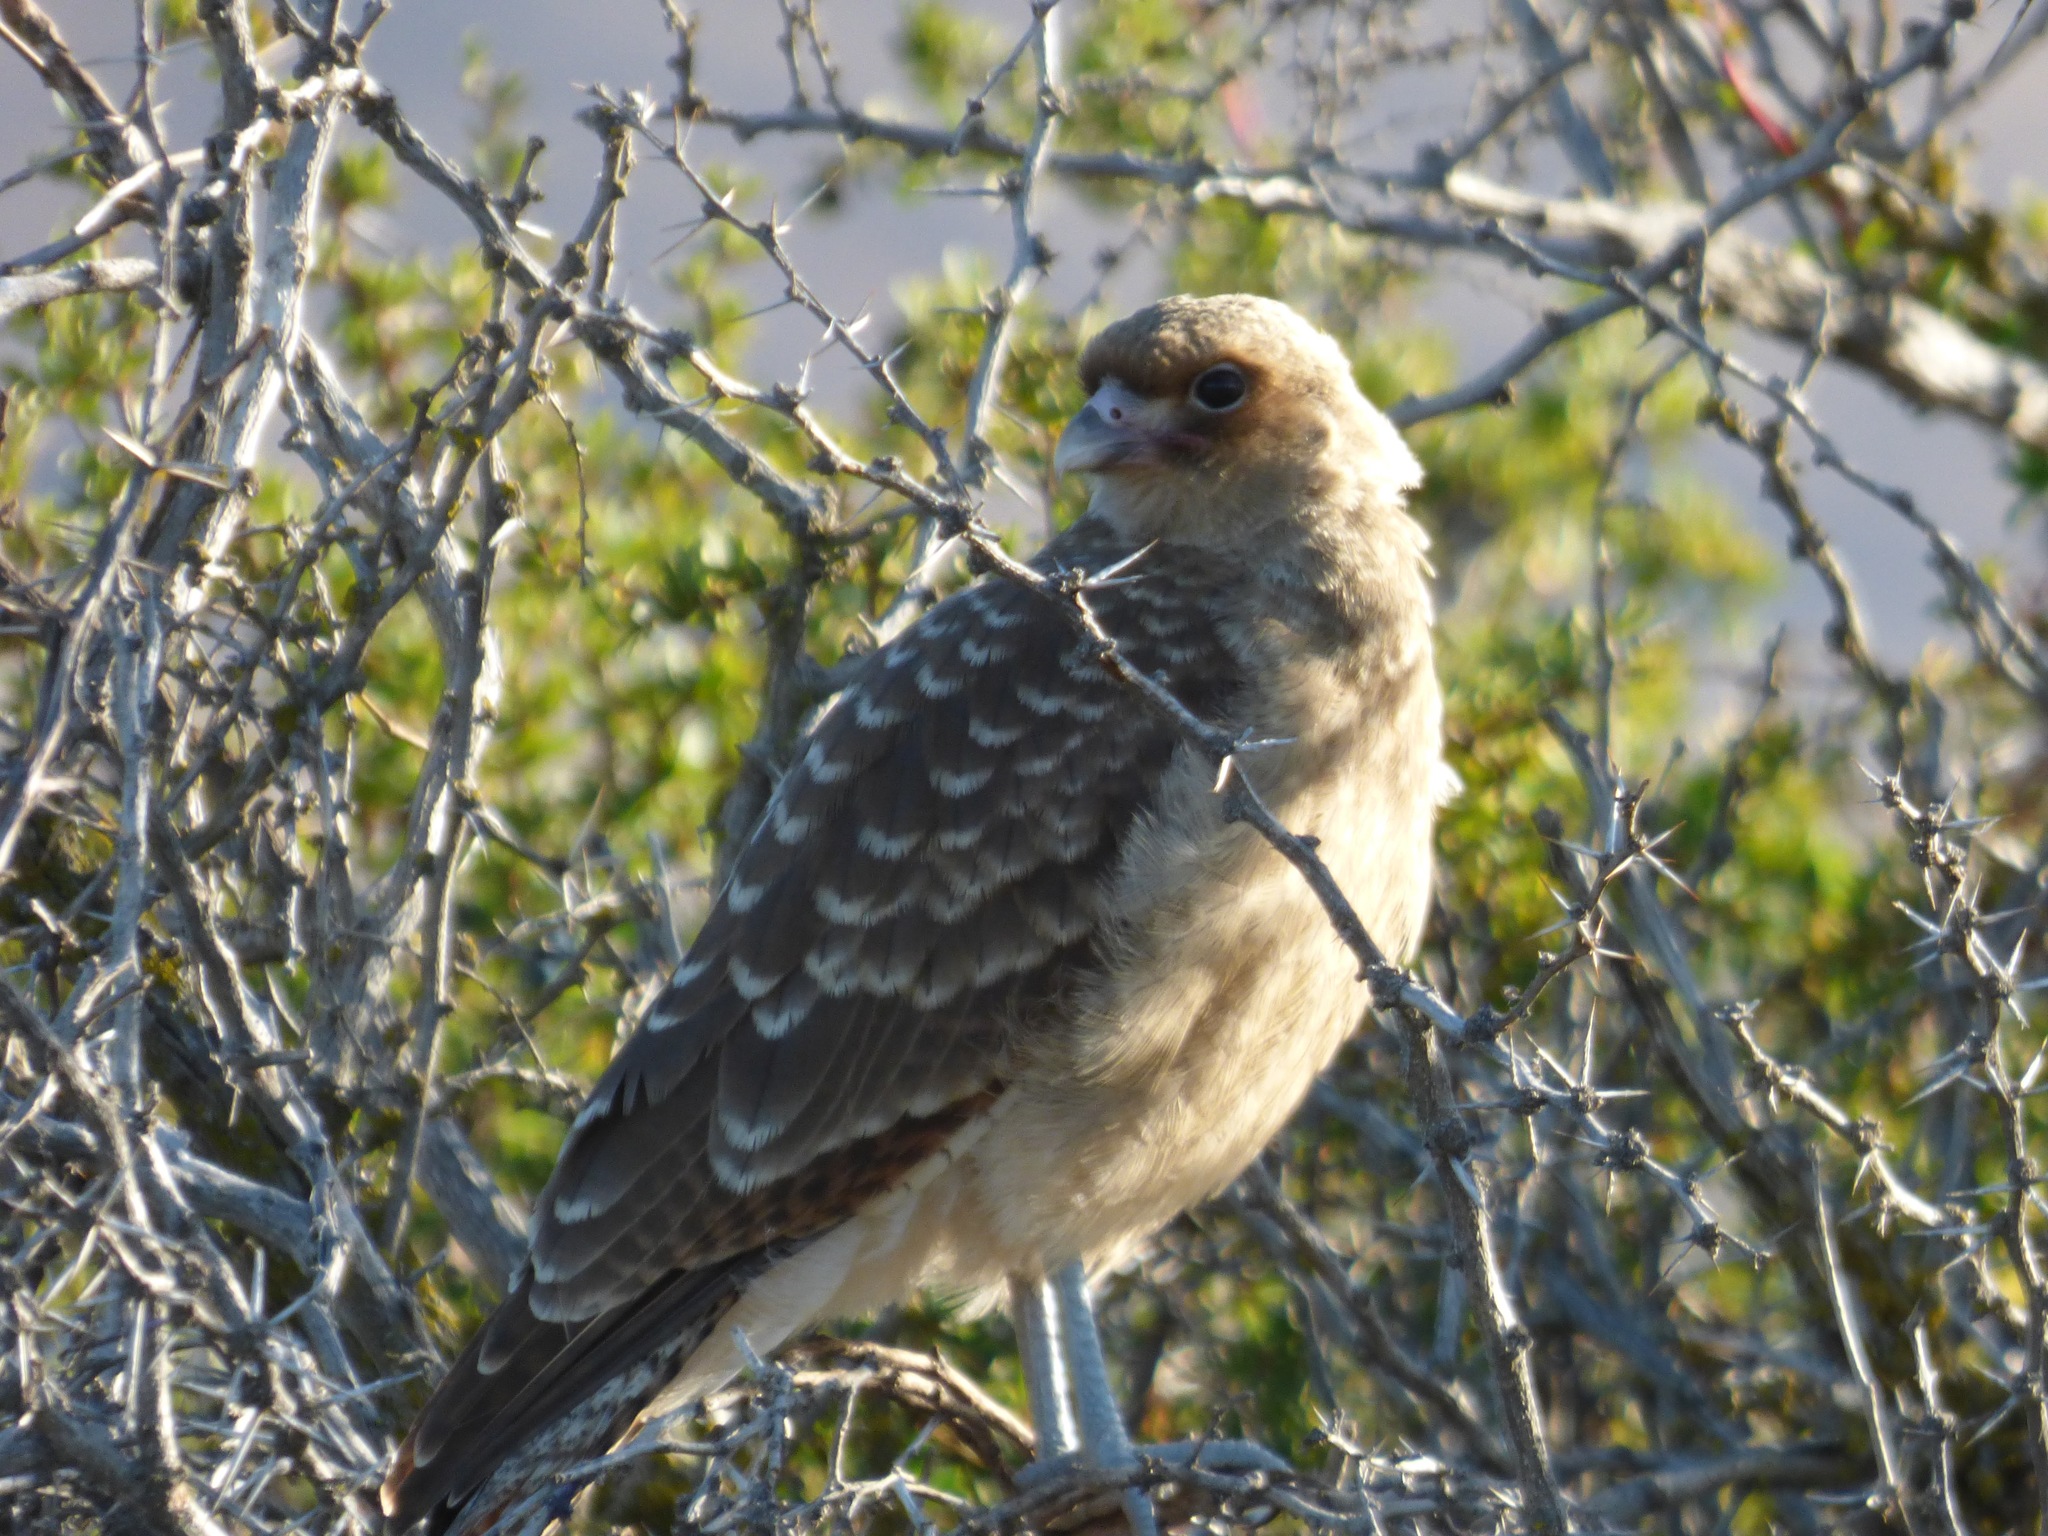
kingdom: Animalia
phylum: Chordata
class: Aves
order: Falconiformes
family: Falconidae
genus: Daptrius
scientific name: Daptrius
